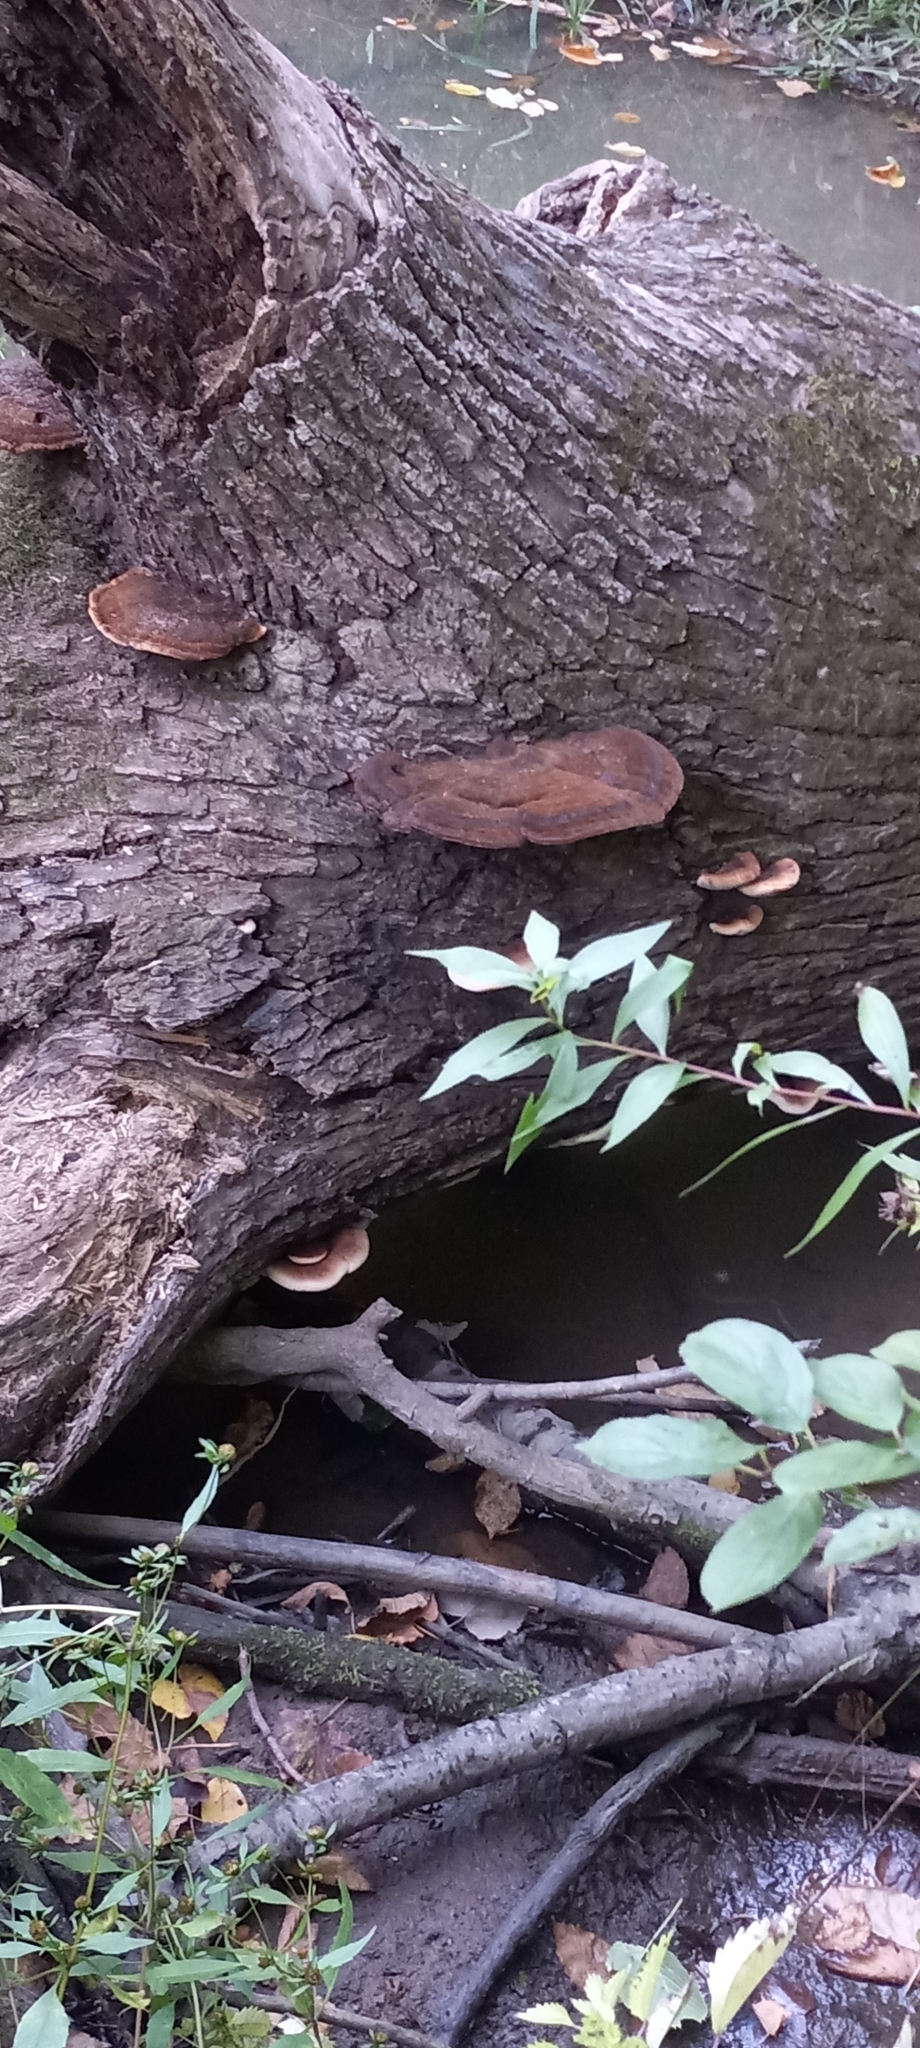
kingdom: Fungi
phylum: Basidiomycota
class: Agaricomycetes
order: Polyporales
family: Ischnodermataceae
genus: Ischnoderma
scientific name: Ischnoderma resinosum
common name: Resinous polypore
